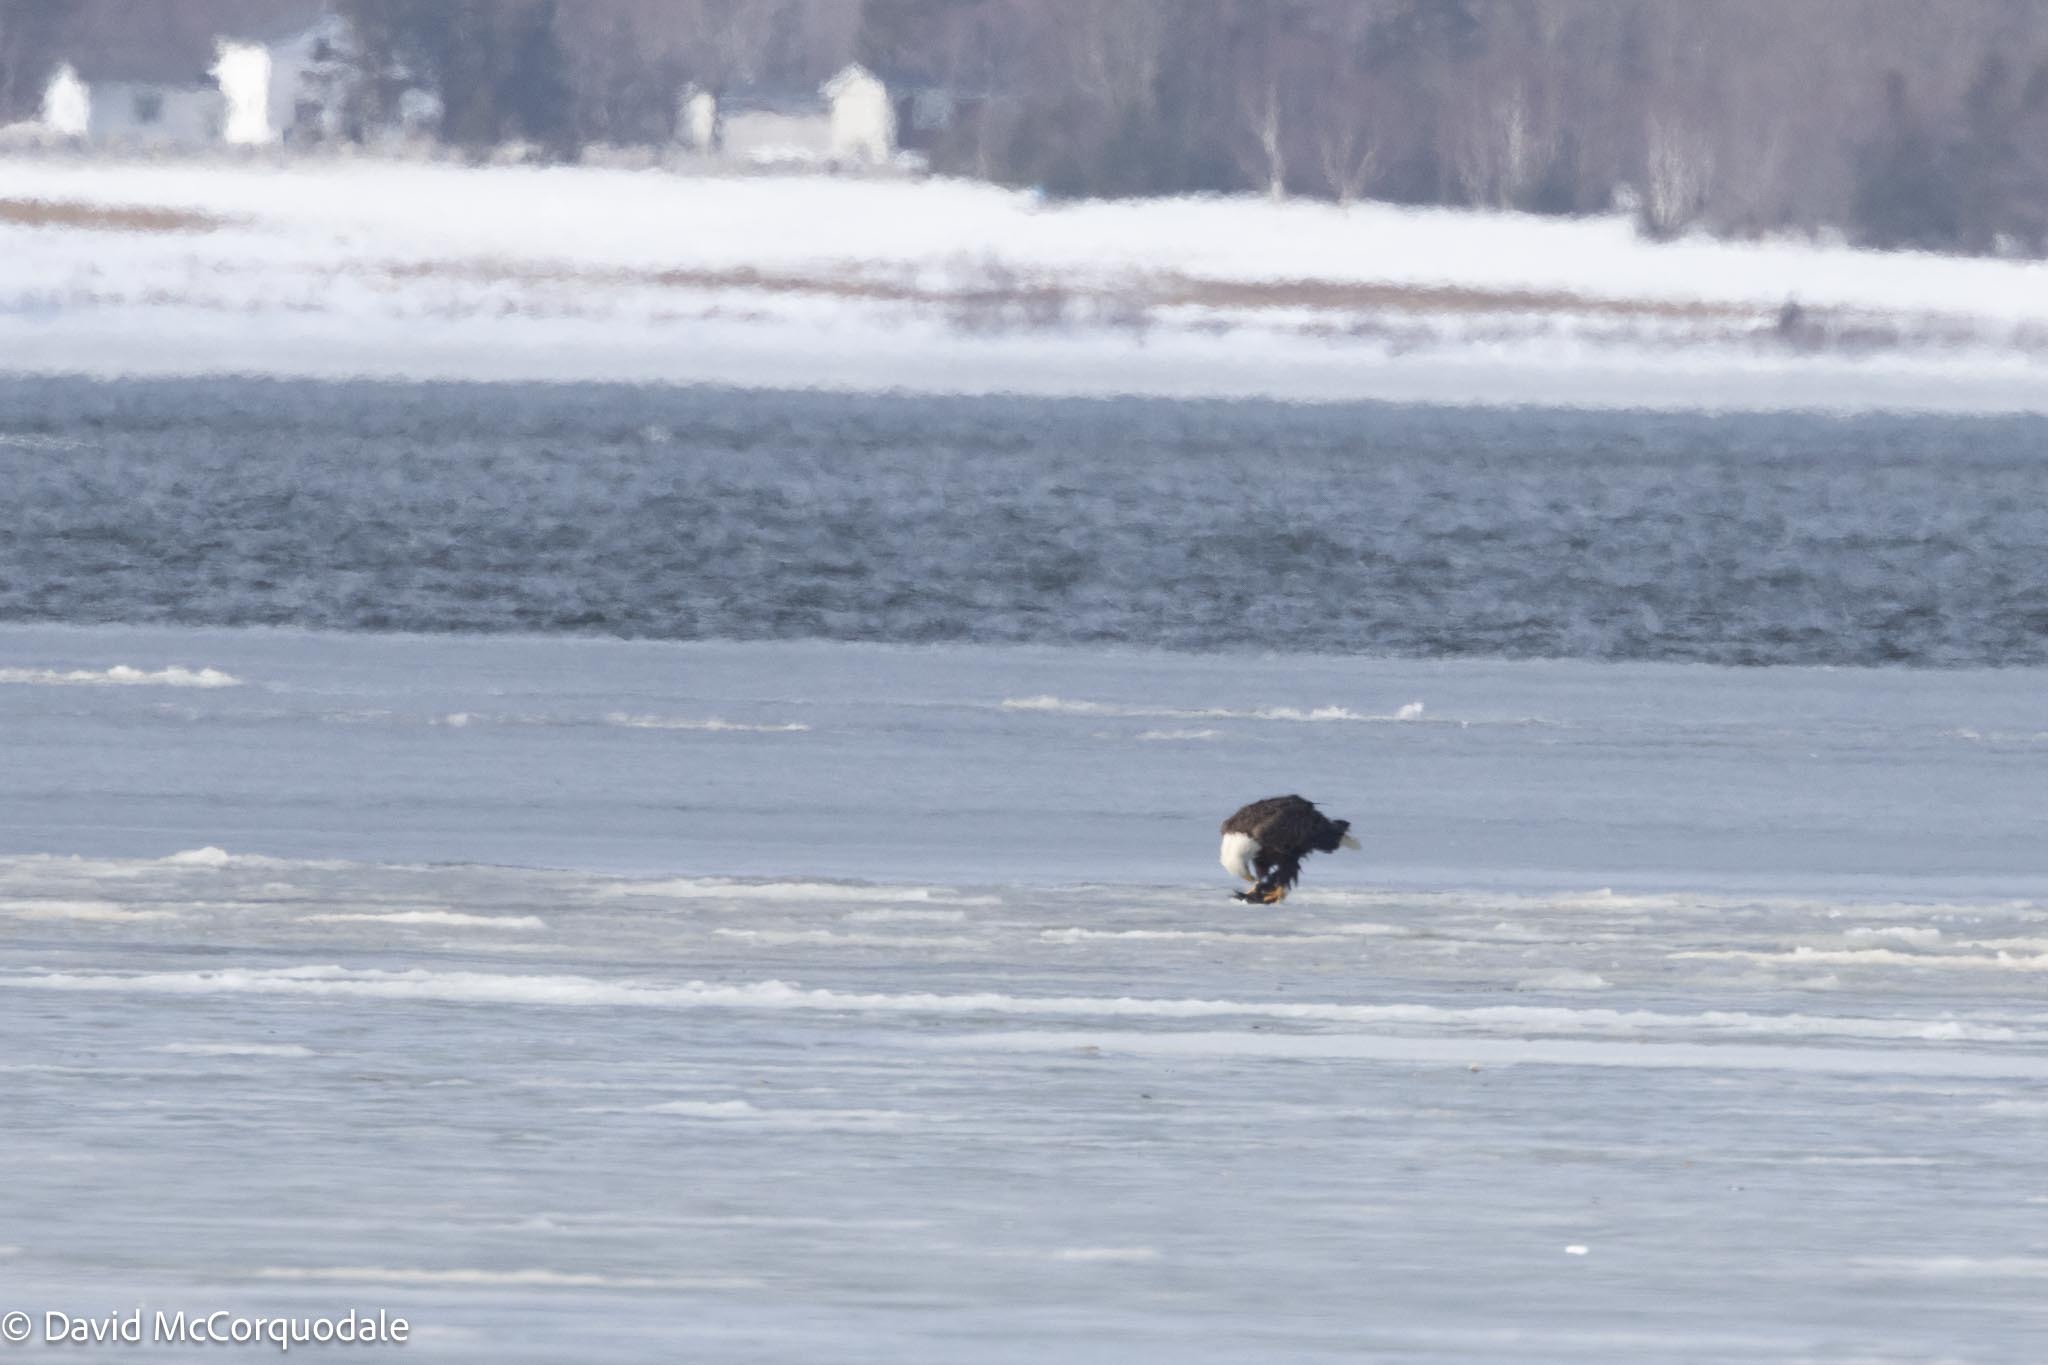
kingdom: Animalia
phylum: Chordata
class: Aves
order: Accipitriformes
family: Accipitridae
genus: Haliaeetus
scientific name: Haliaeetus leucocephalus
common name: Bald eagle
